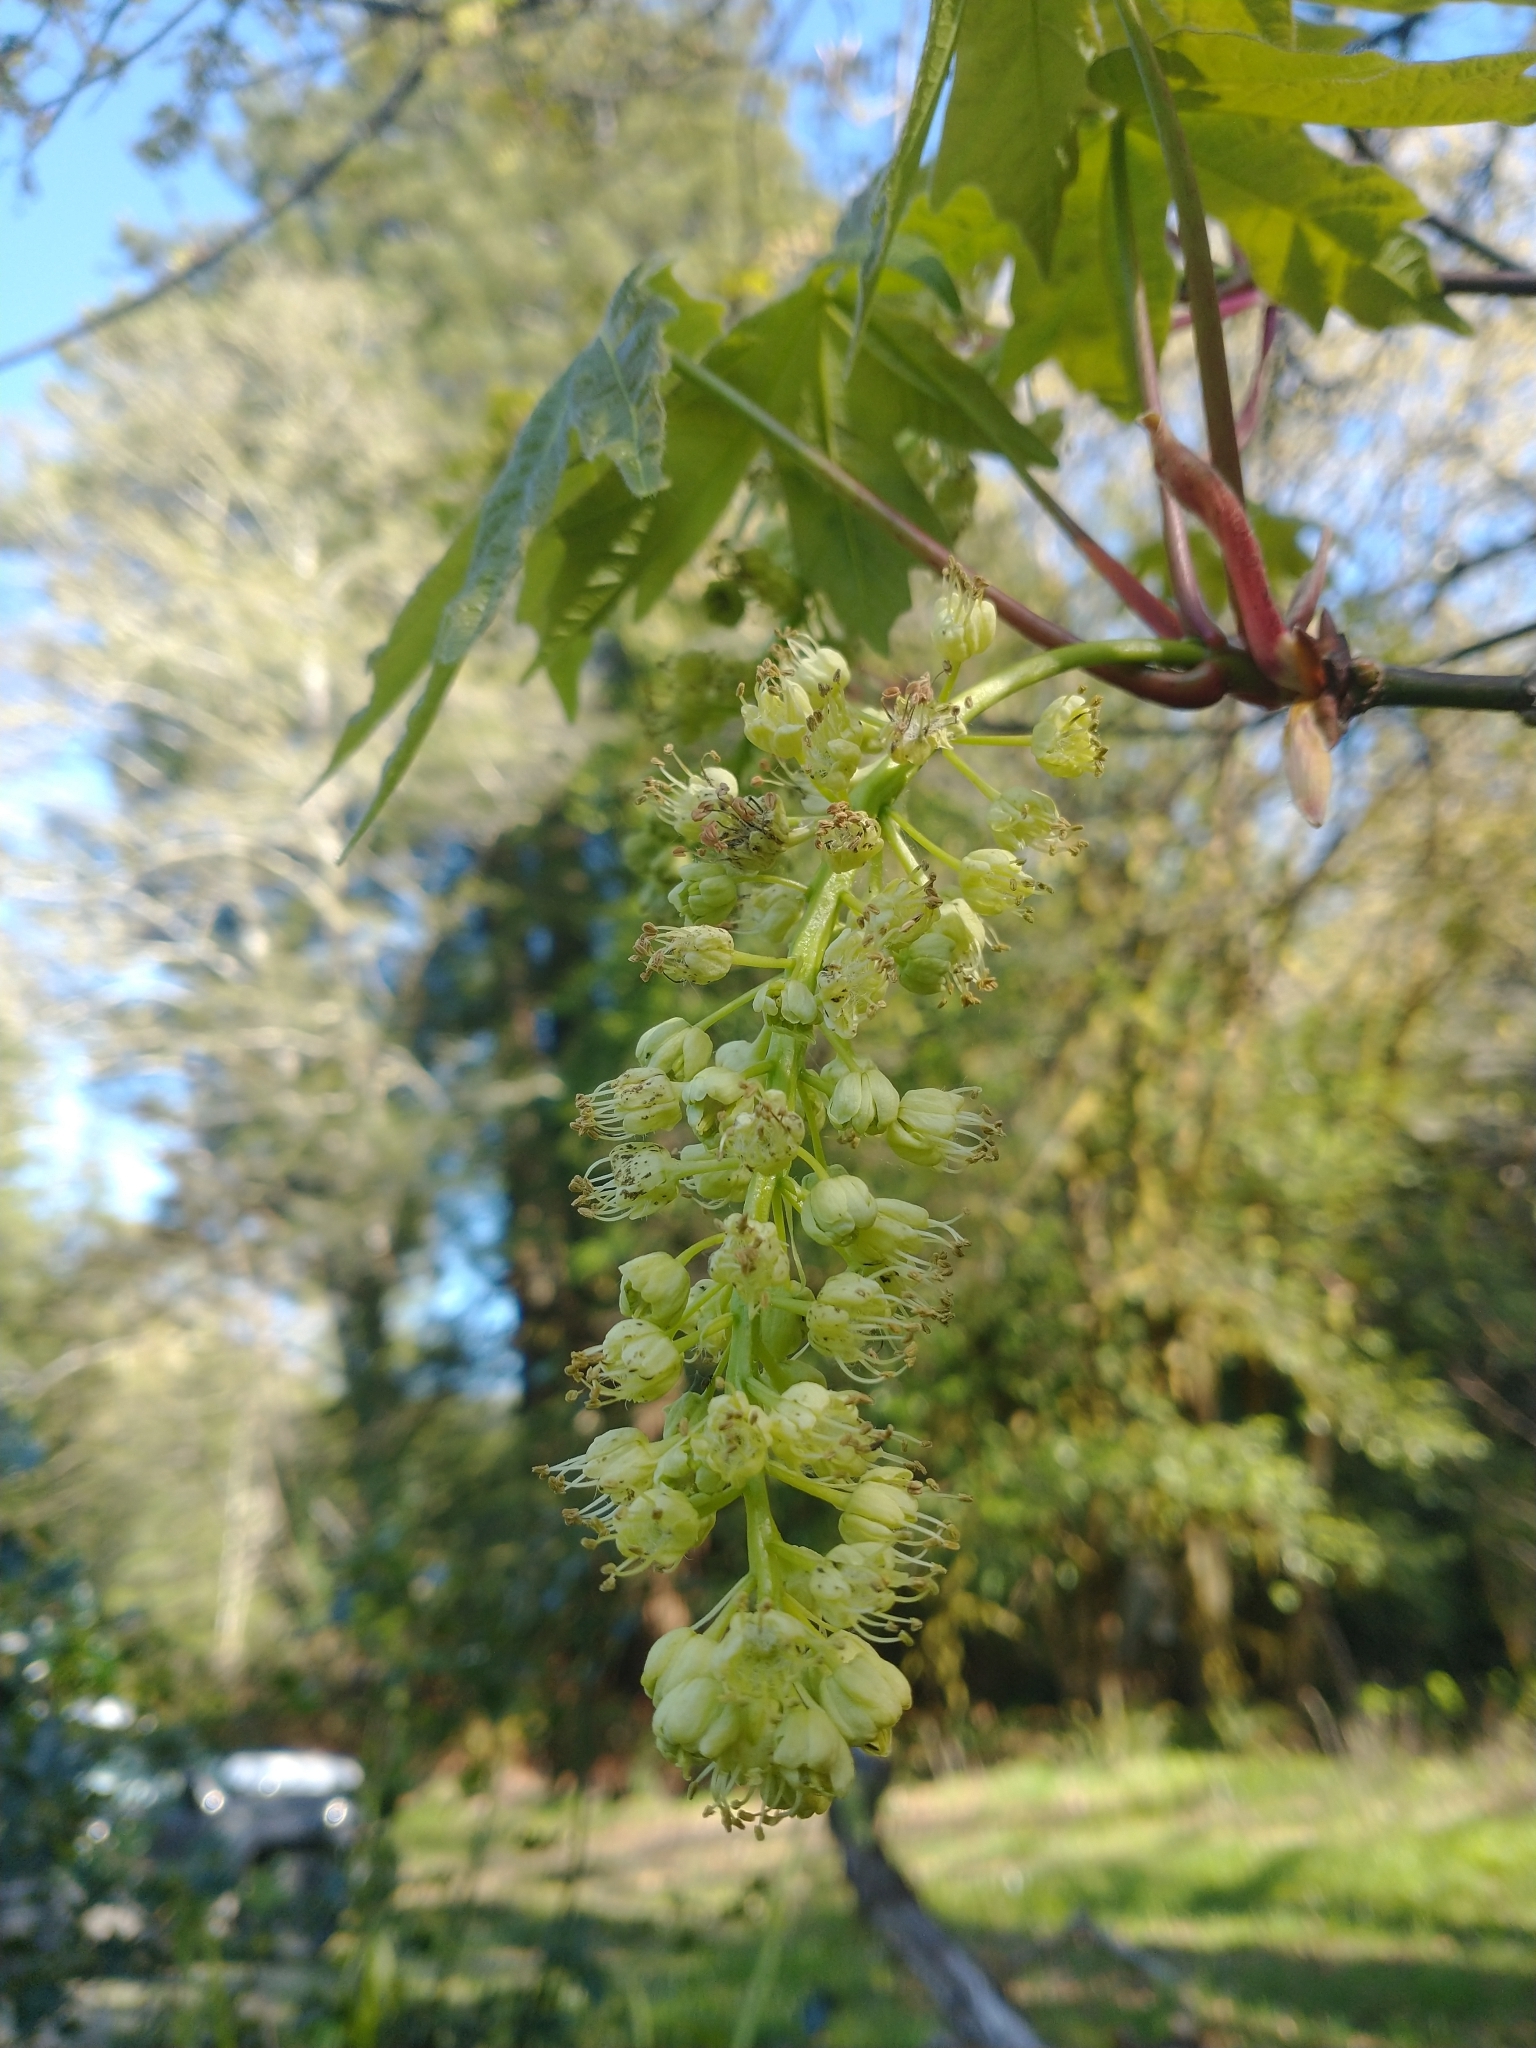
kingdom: Plantae
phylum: Tracheophyta
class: Magnoliopsida
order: Sapindales
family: Sapindaceae
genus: Acer
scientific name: Acer macrophyllum
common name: Oregon maple
